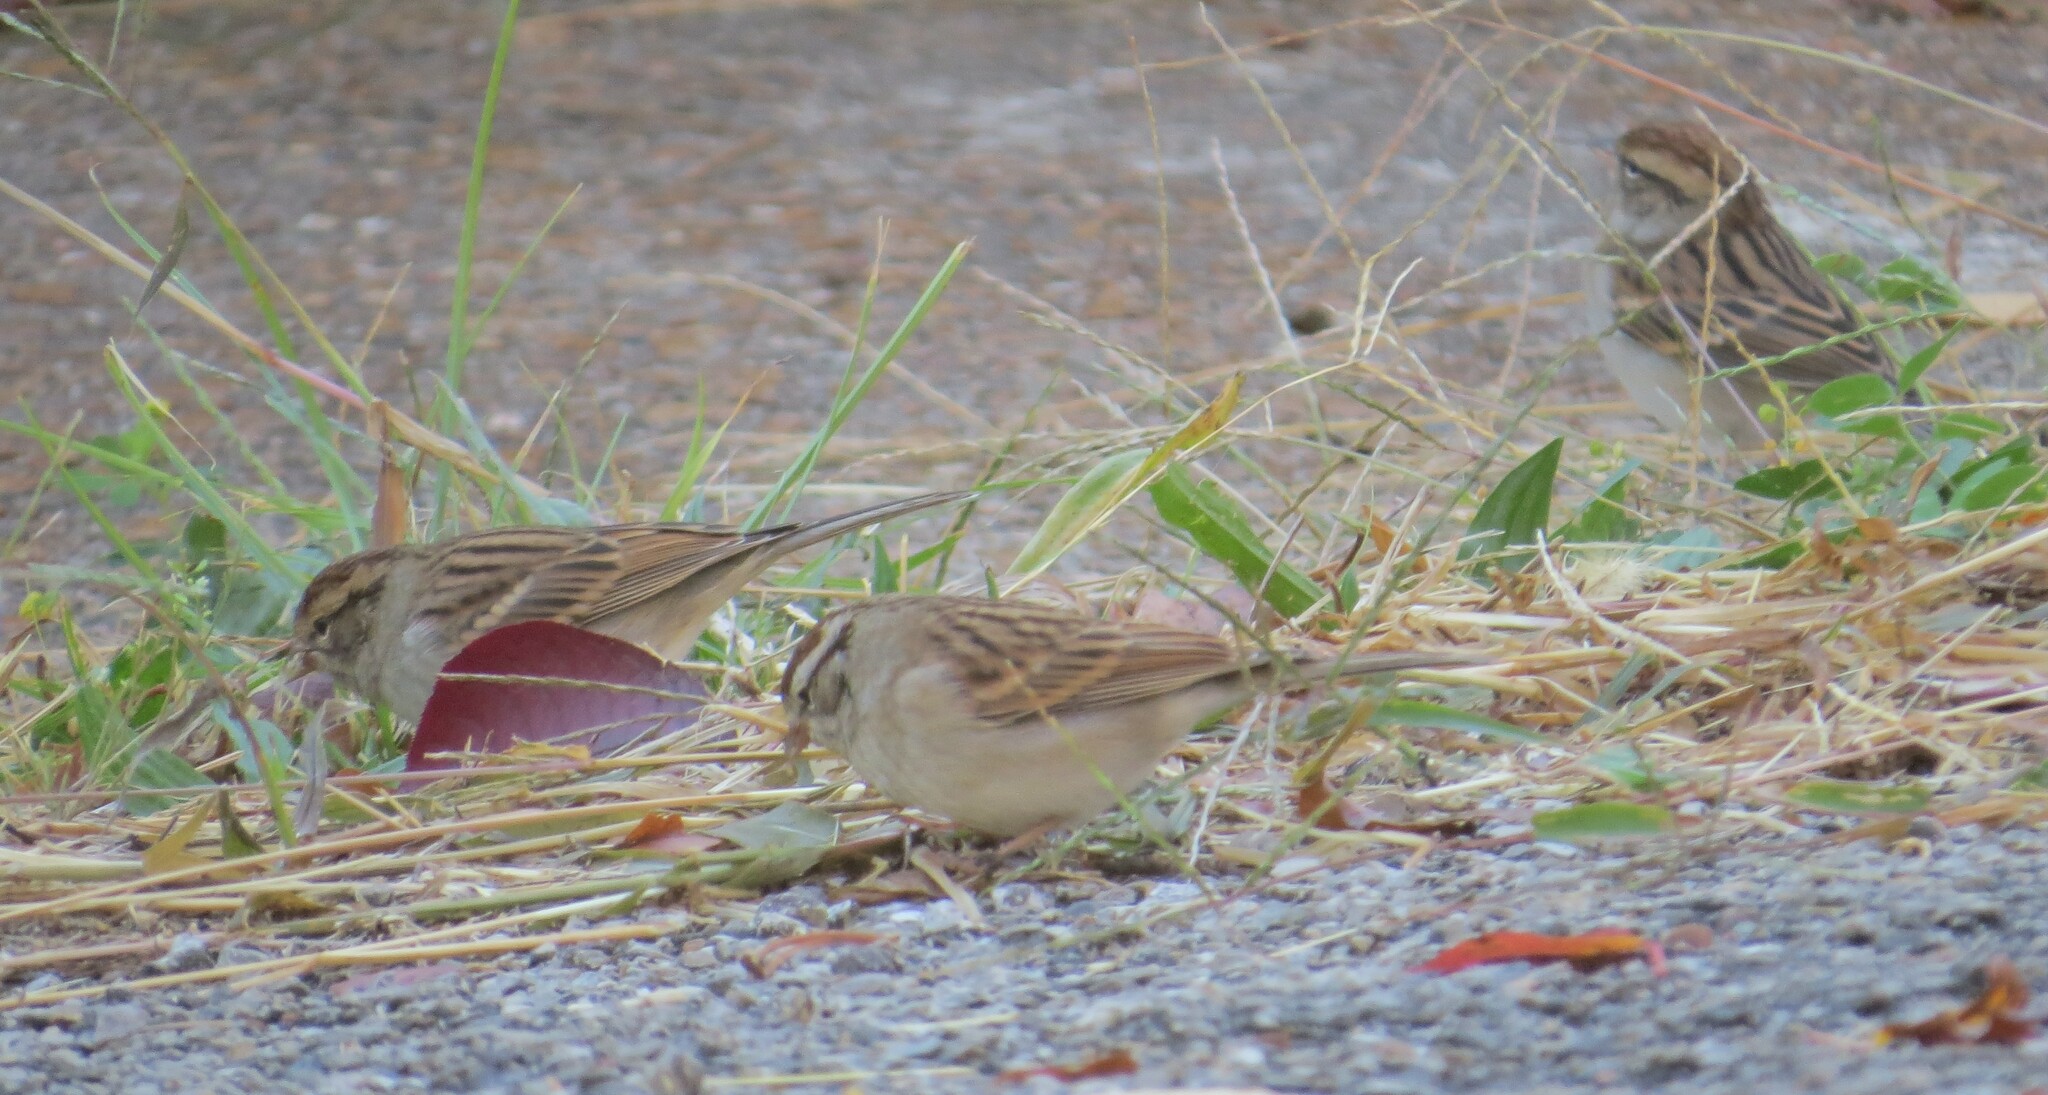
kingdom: Animalia
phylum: Chordata
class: Aves
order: Passeriformes
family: Passerellidae
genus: Spizella
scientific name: Spizella passerina
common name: Chipping sparrow
